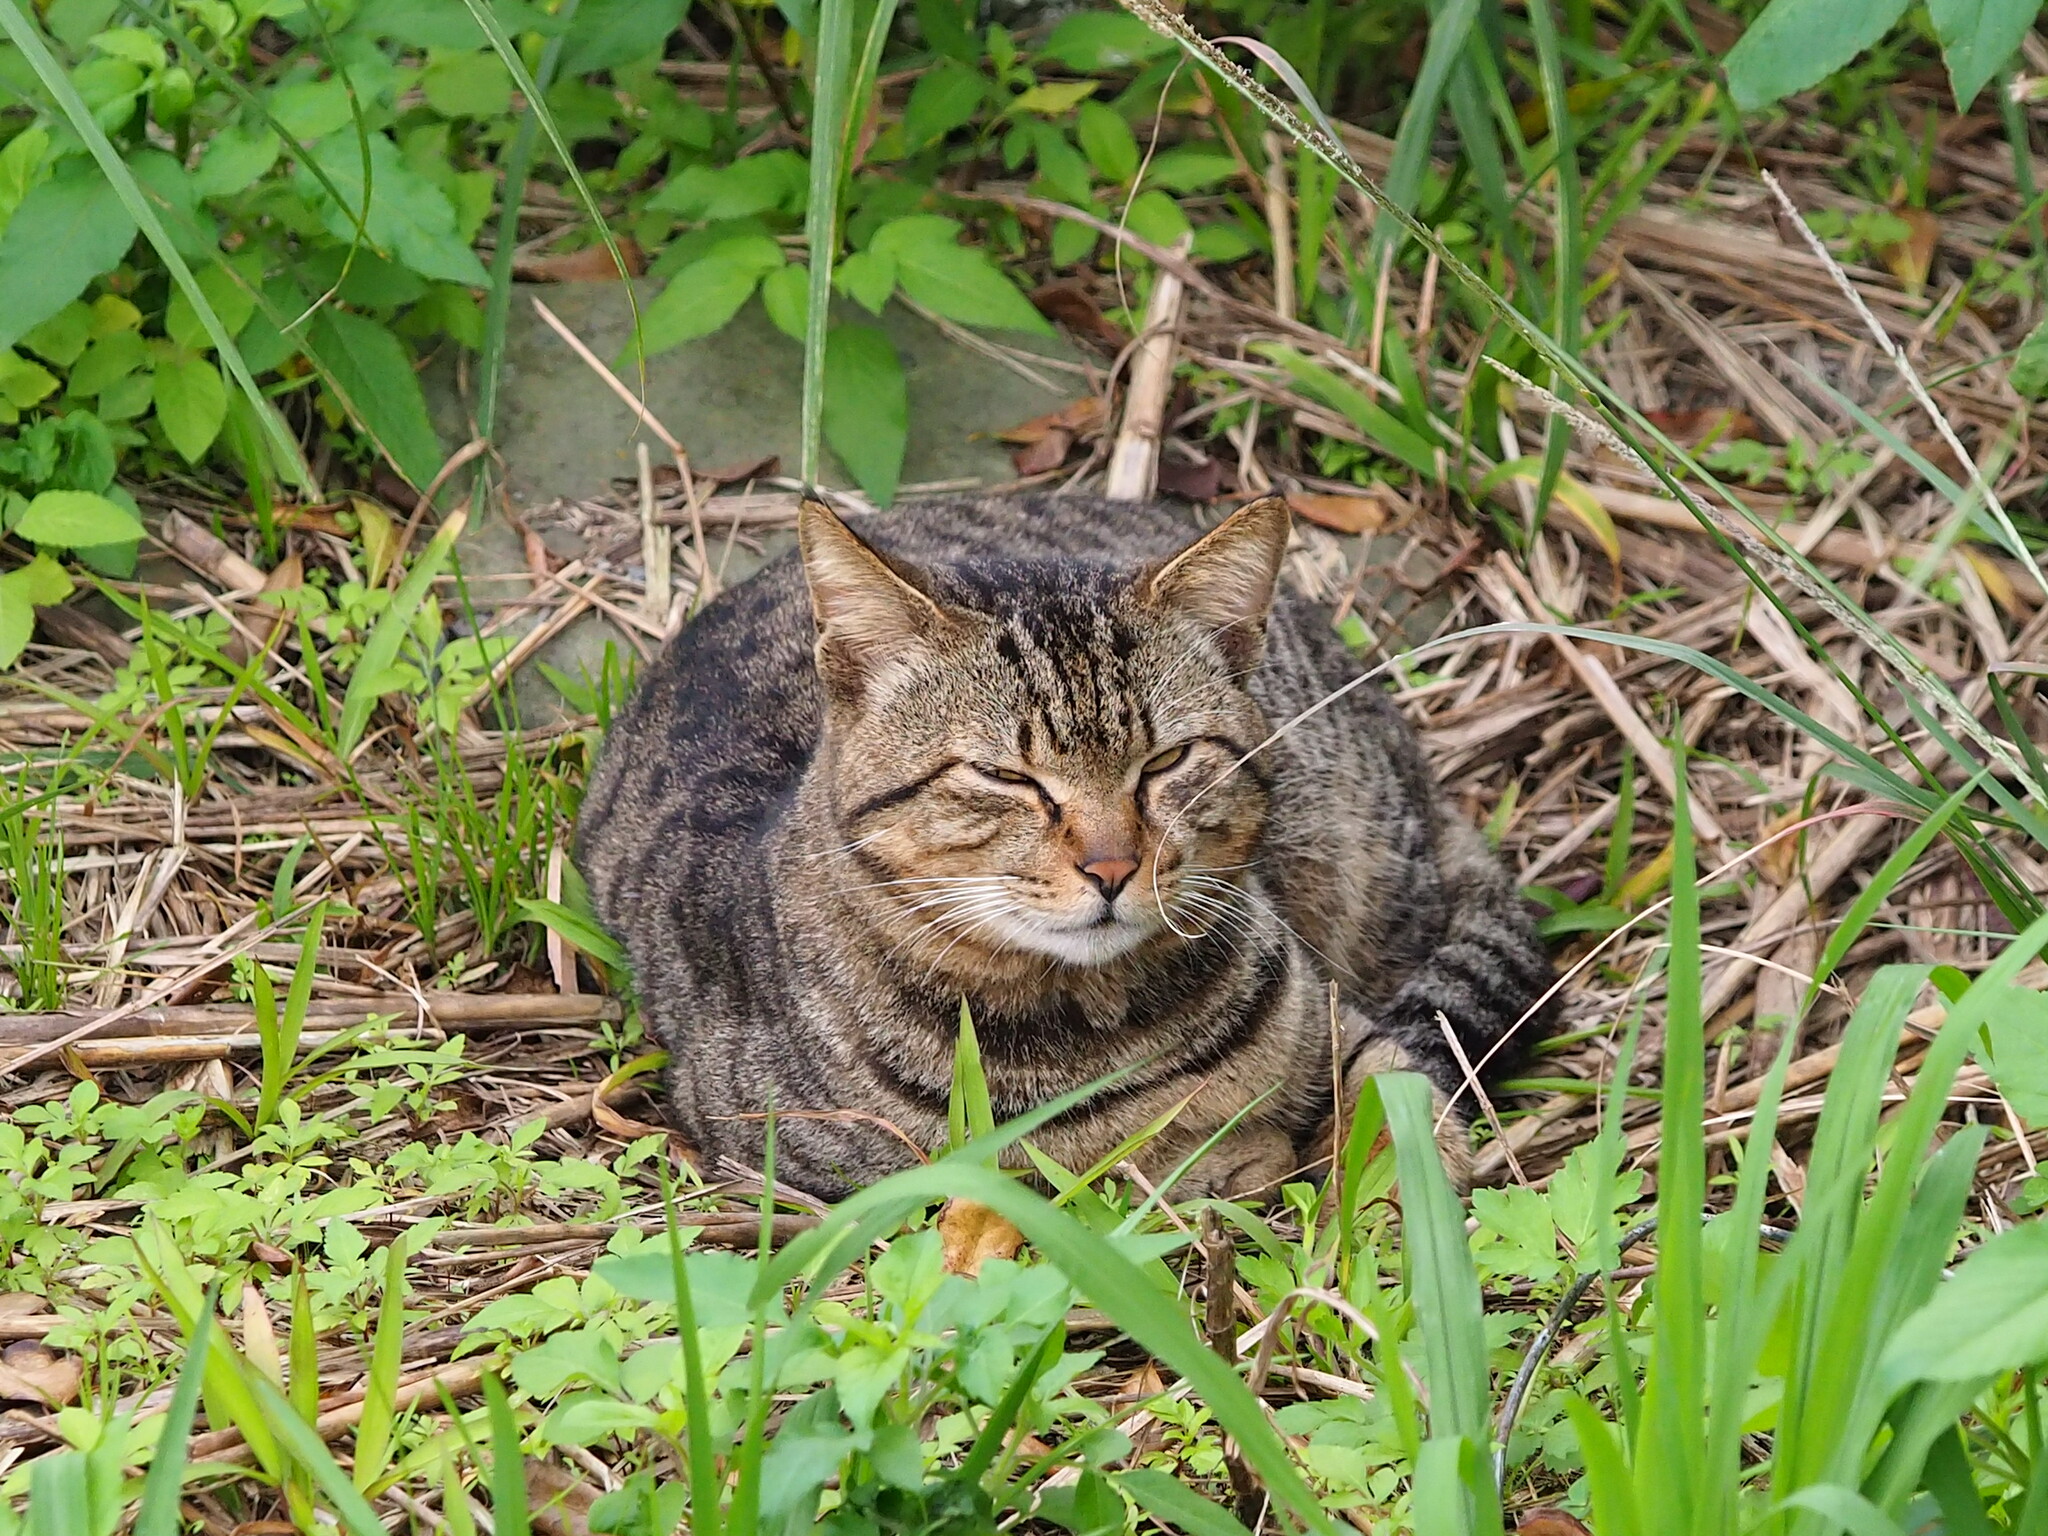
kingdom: Animalia
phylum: Chordata
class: Mammalia
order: Carnivora
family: Felidae
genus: Felis
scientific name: Felis catus
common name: Domestic cat
